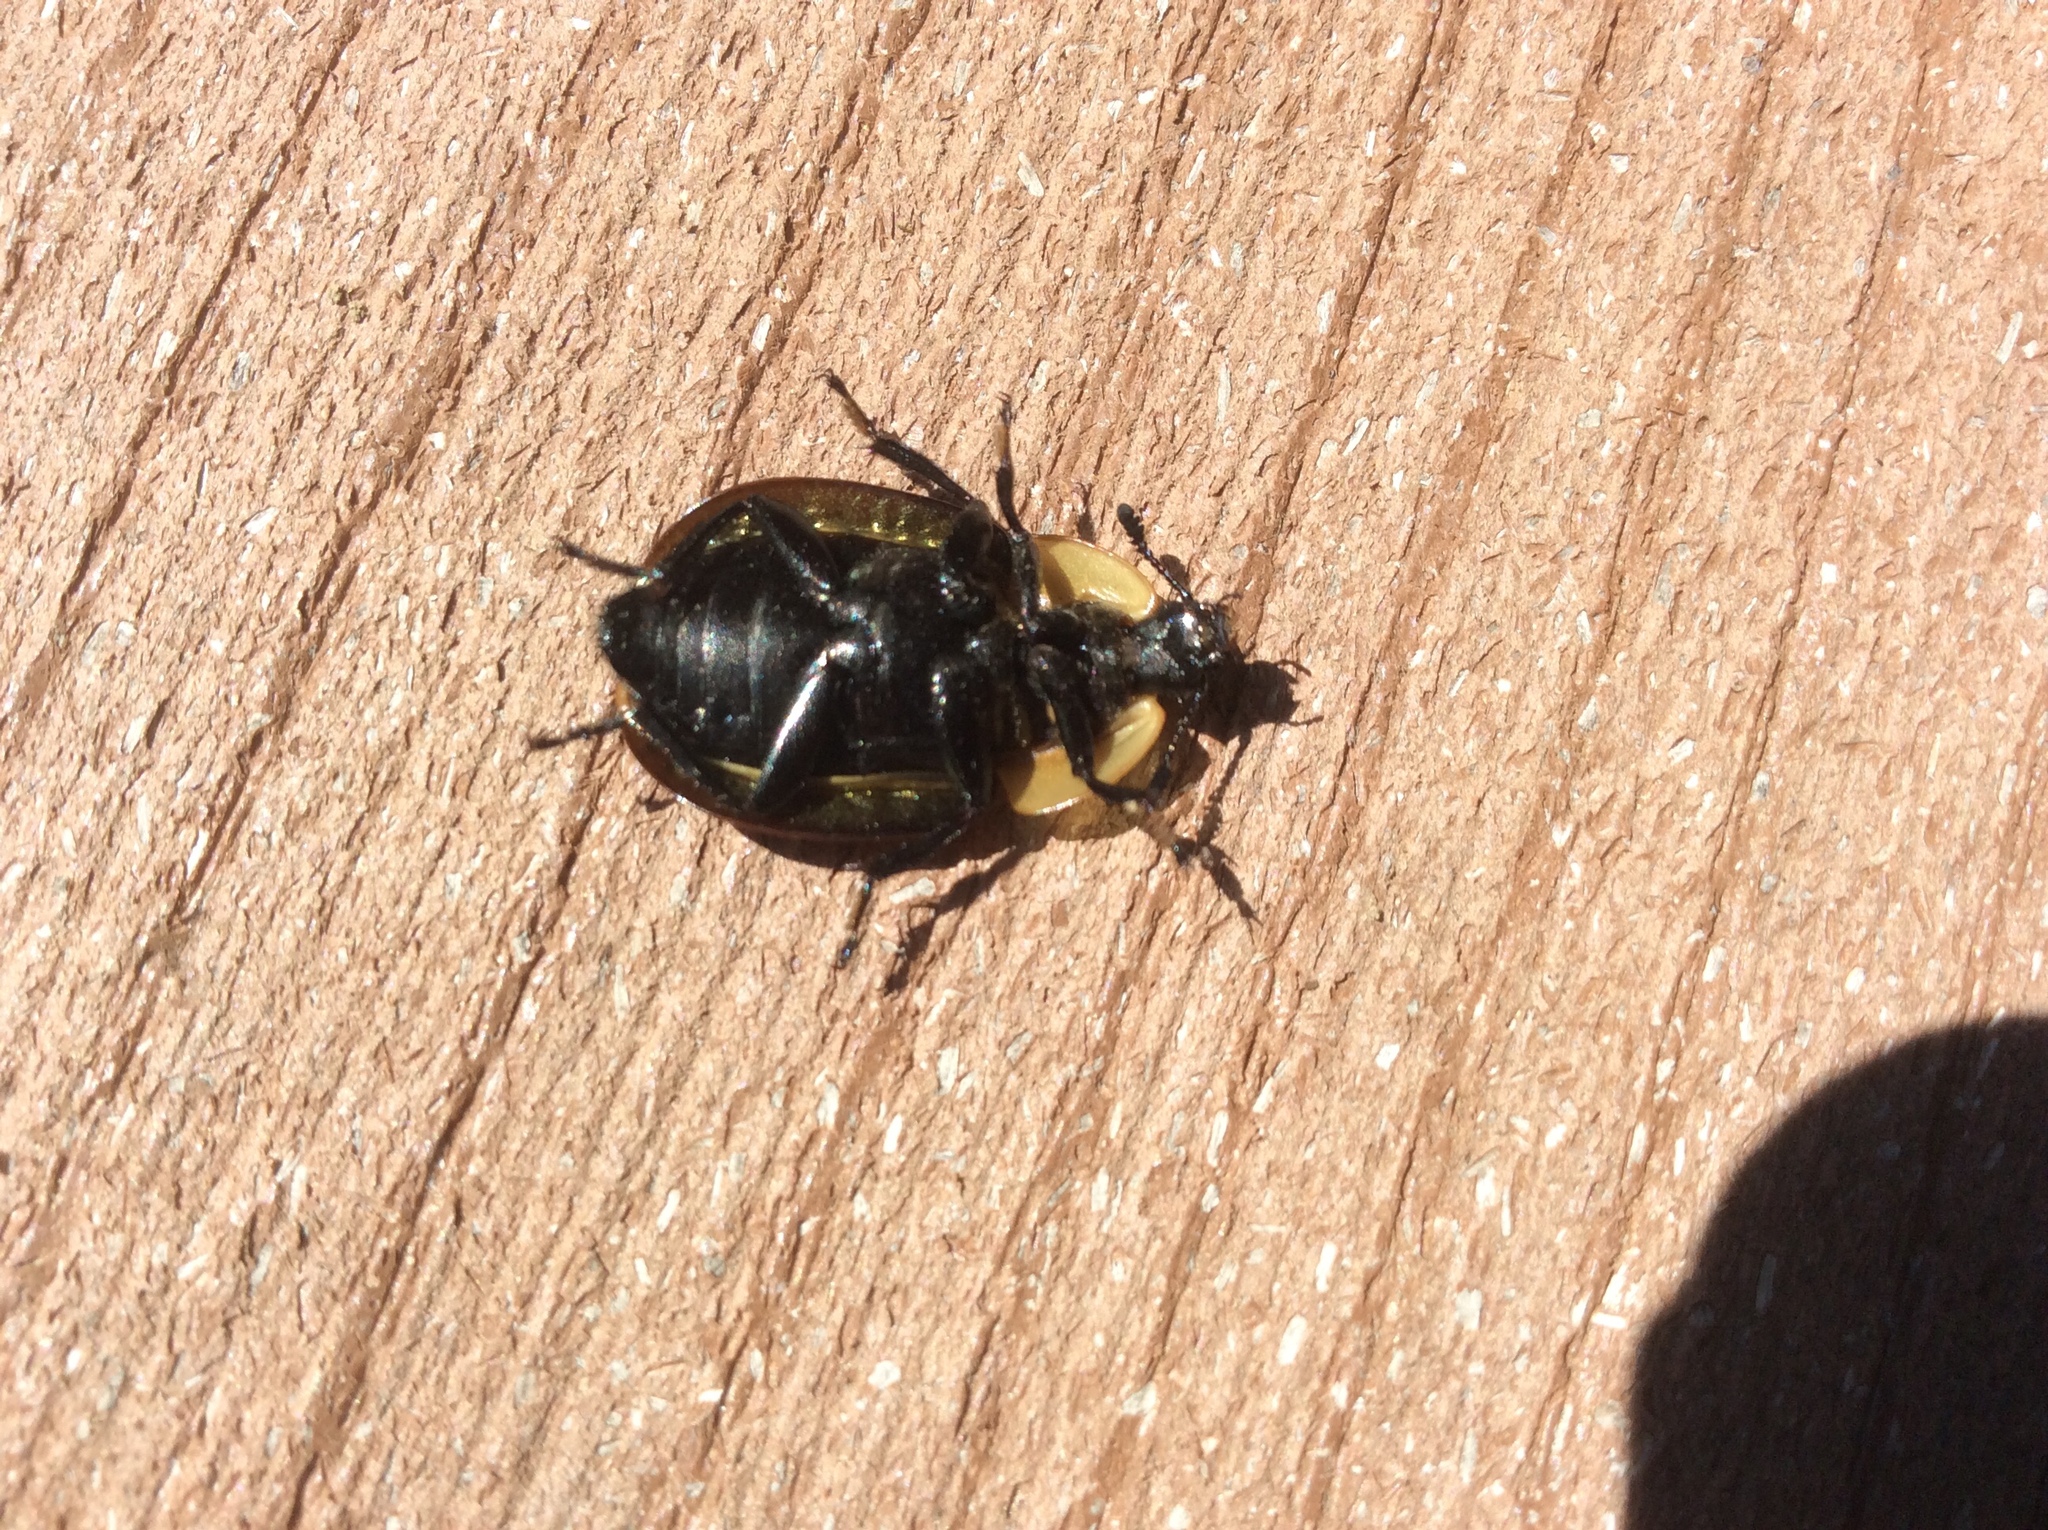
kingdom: Animalia
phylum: Arthropoda
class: Insecta
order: Coleoptera
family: Staphylinidae
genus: Necrophila
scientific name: Necrophila americana
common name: American carrion beetle
